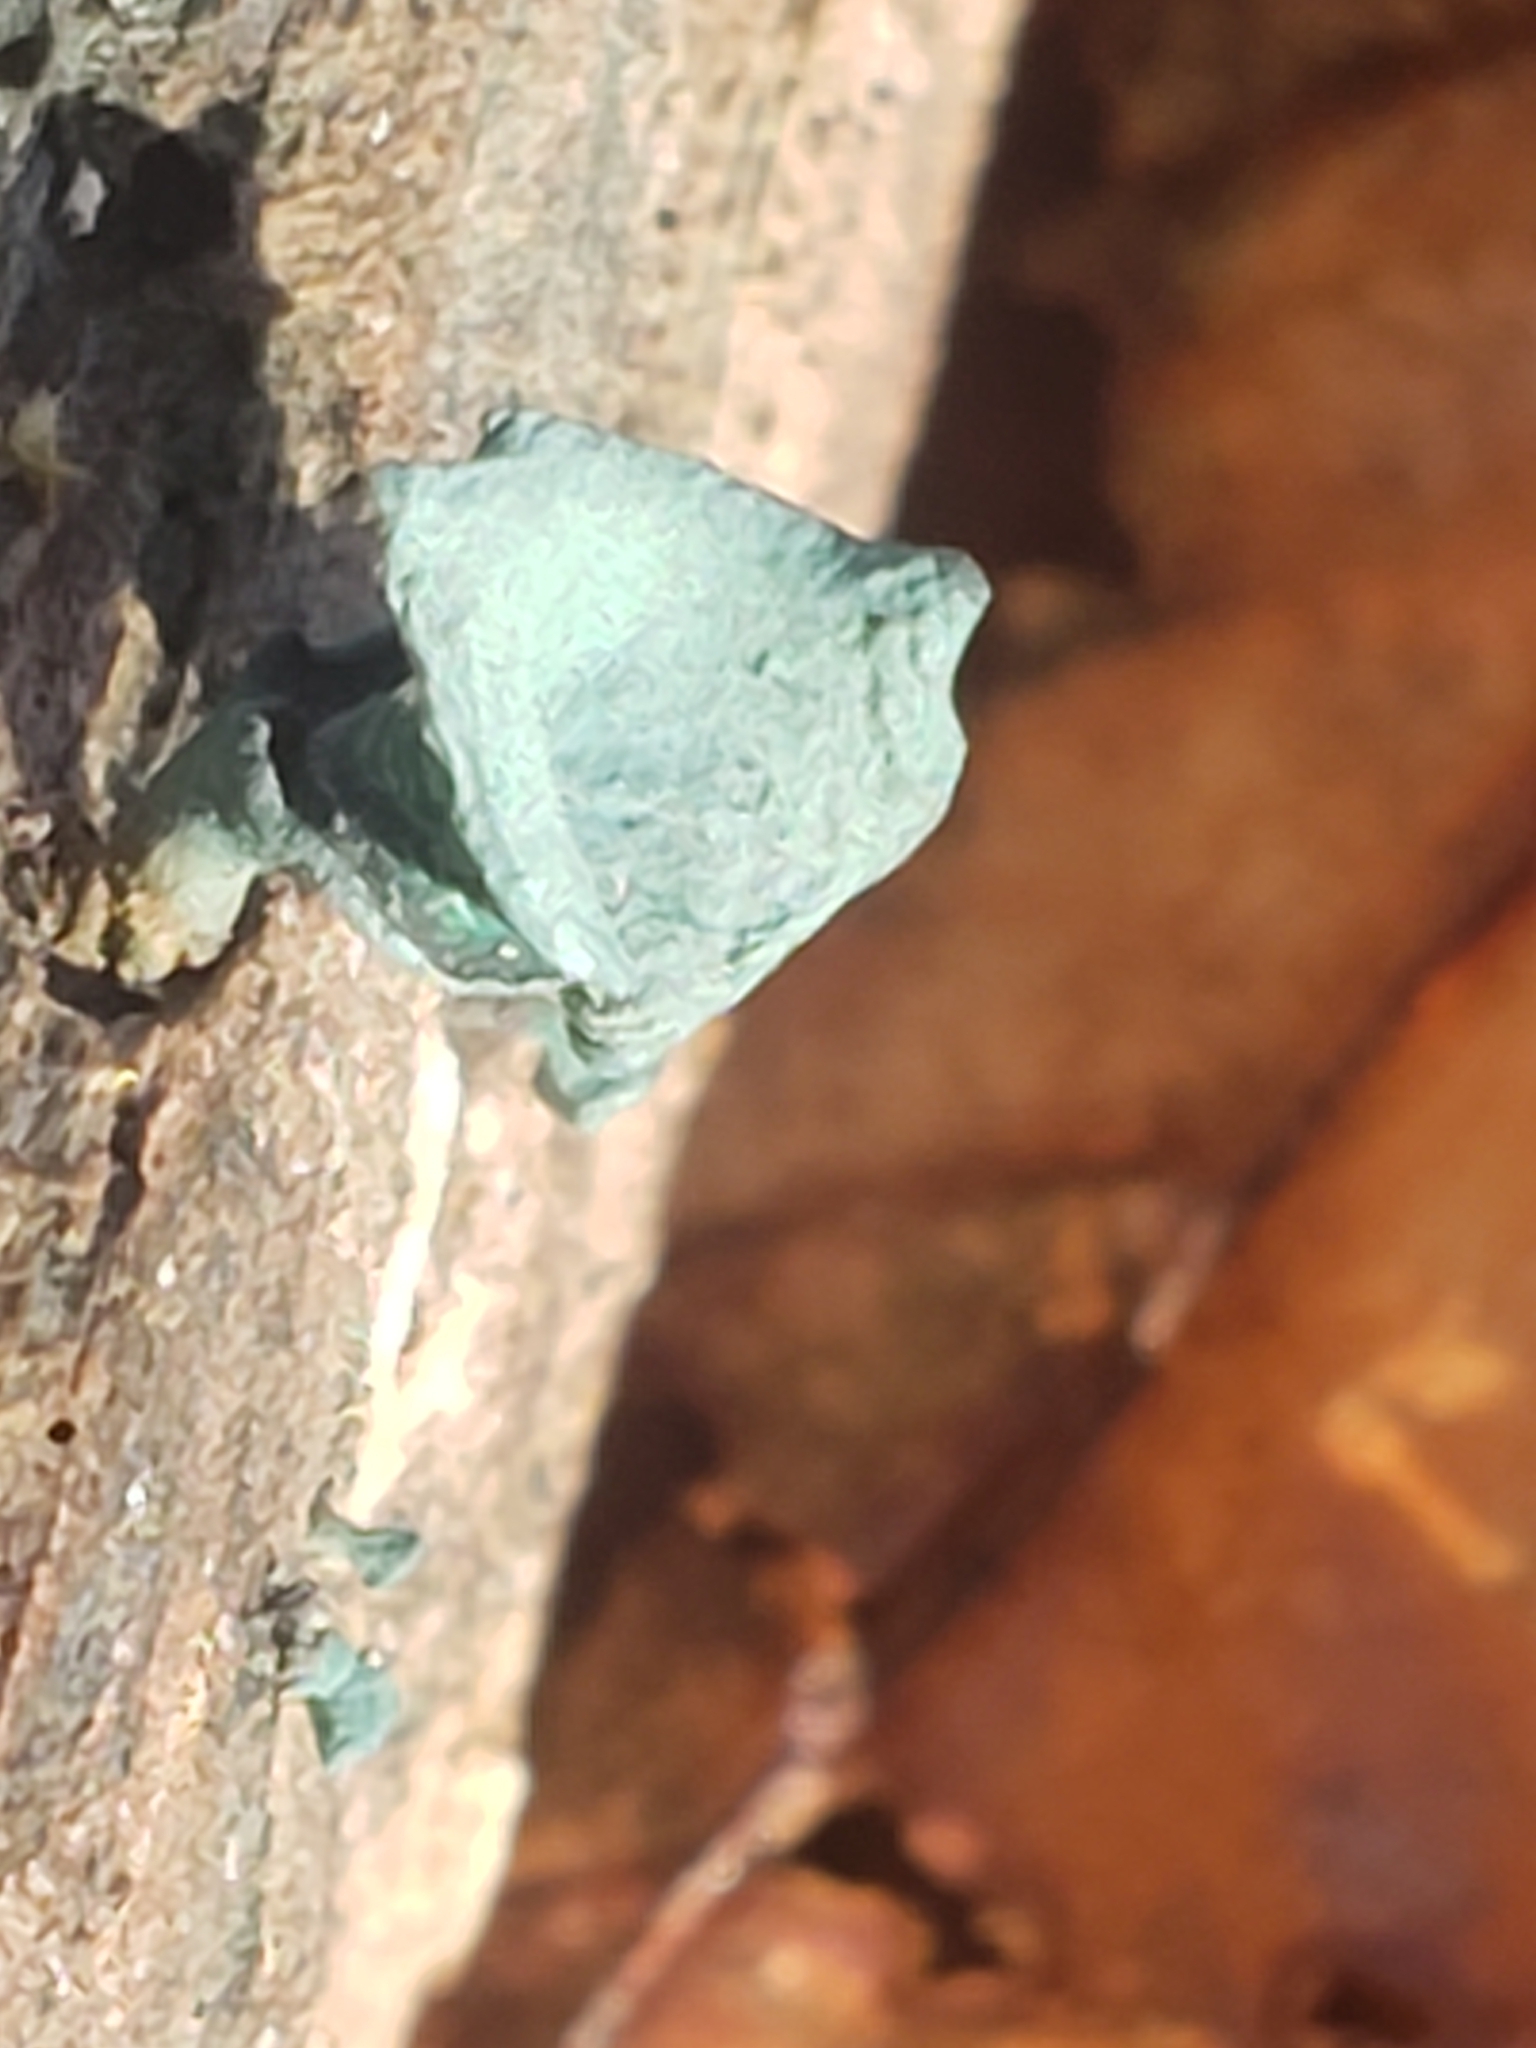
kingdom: Fungi
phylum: Ascomycota
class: Leotiomycetes
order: Helotiales
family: Chlorociboriaceae
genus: Chlorociboria
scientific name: Chlorociboria aeruginascens
